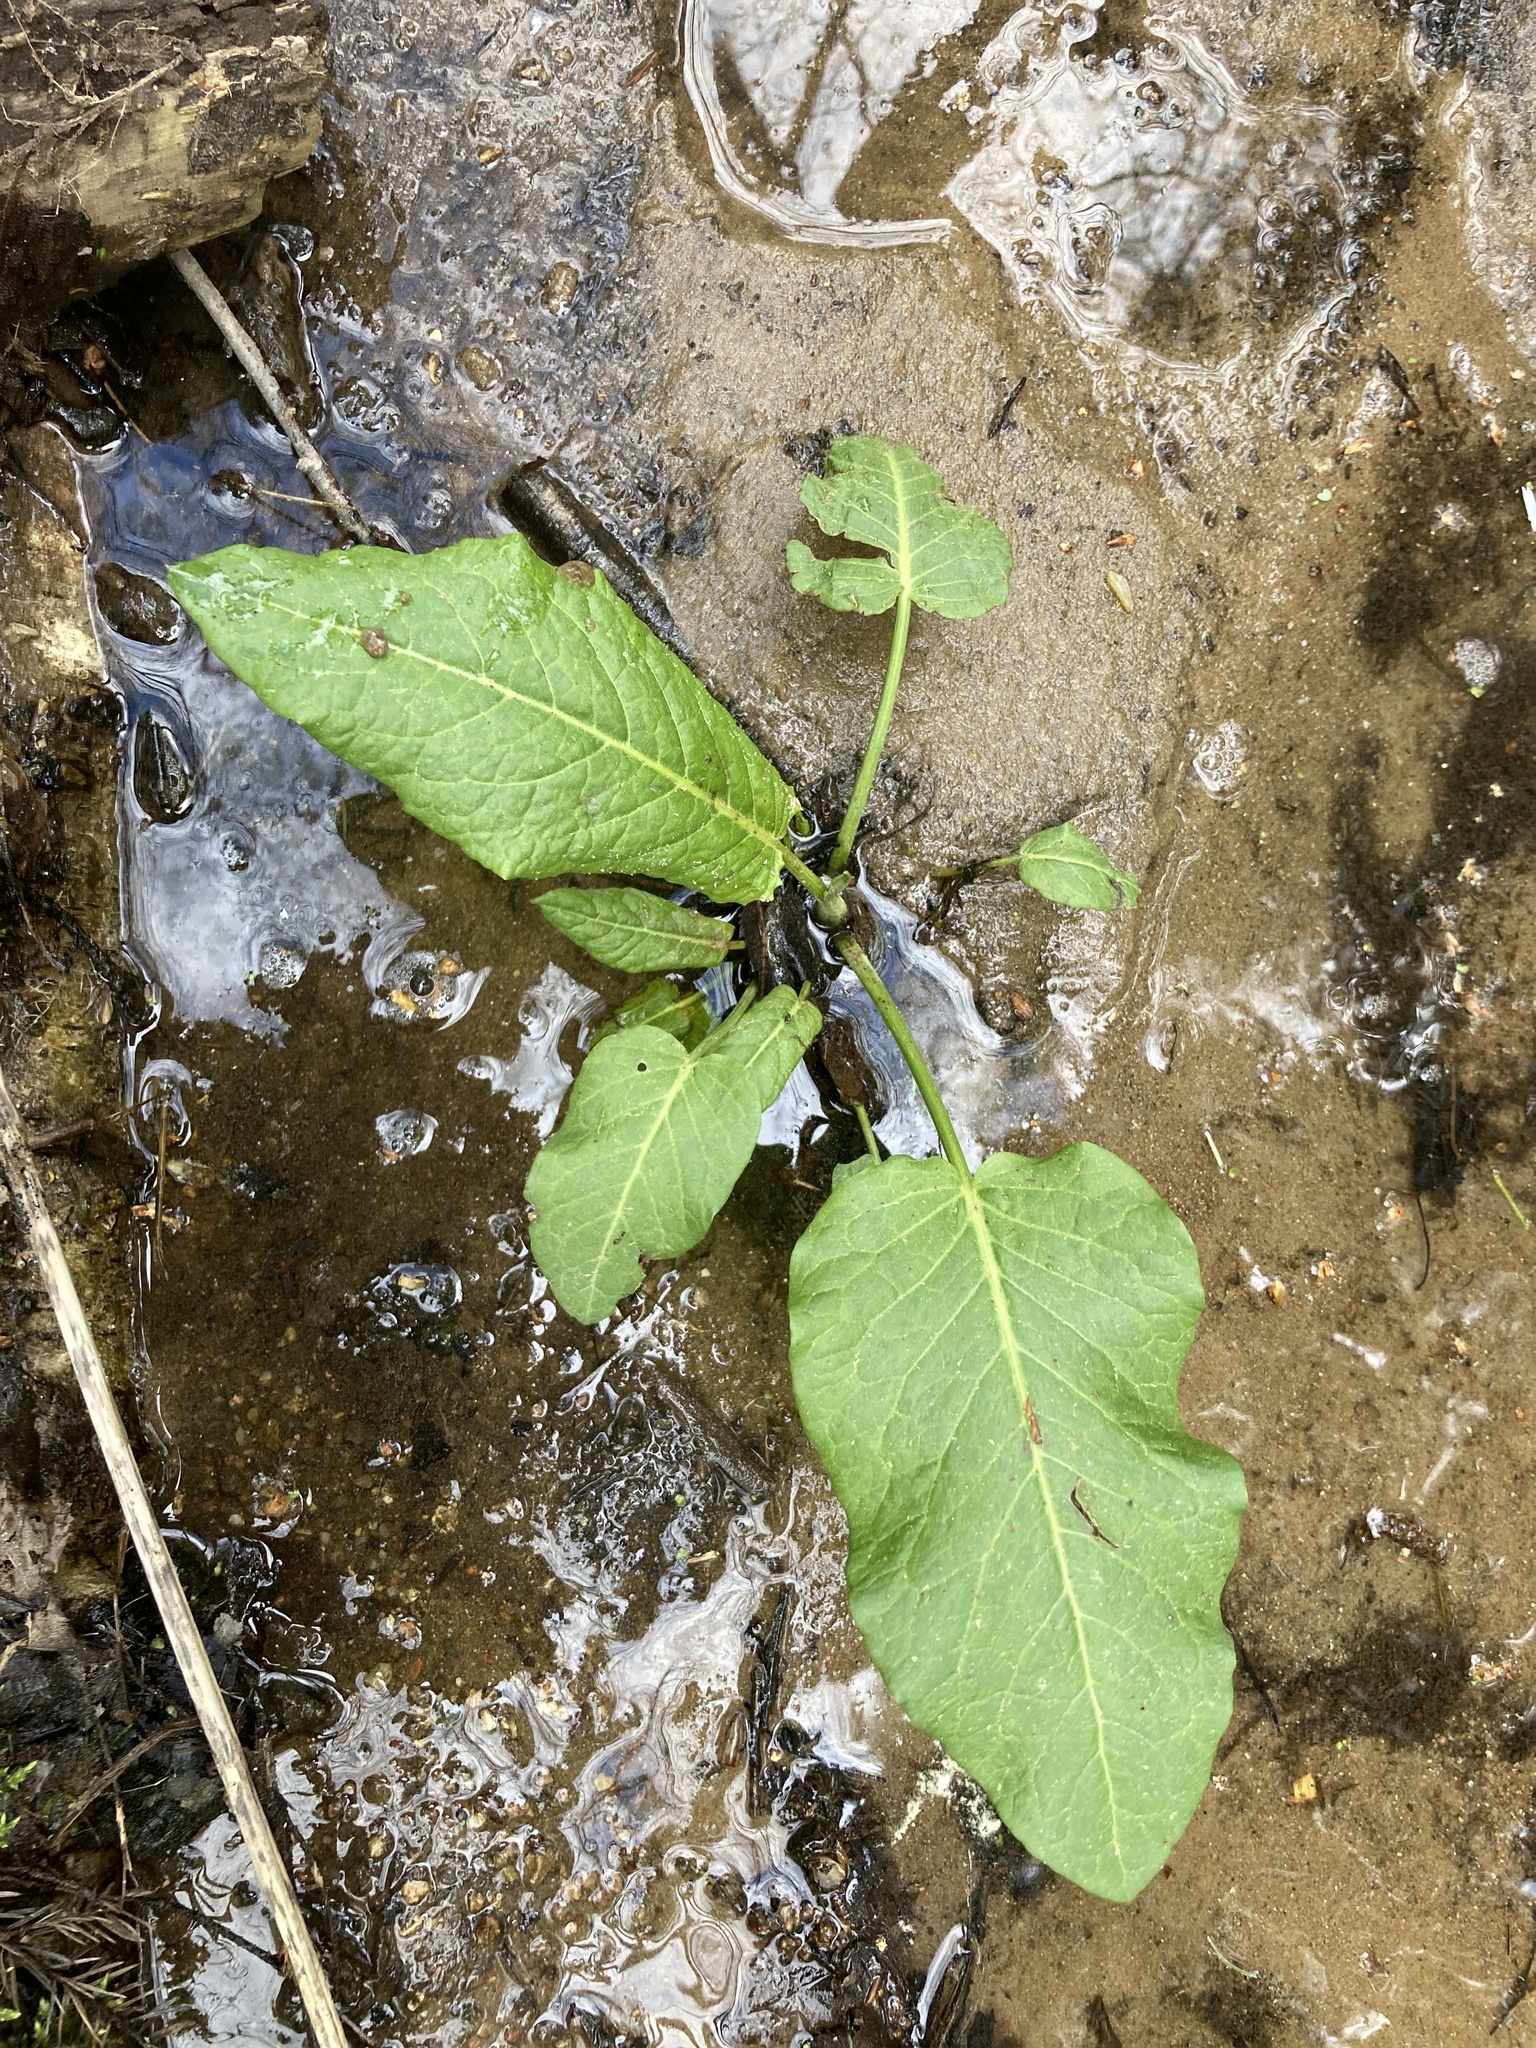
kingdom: Plantae
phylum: Tracheophyta
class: Magnoliopsida
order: Caryophyllales
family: Polygonaceae
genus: Rumex
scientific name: Rumex obtusifolius
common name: Bitter dock
